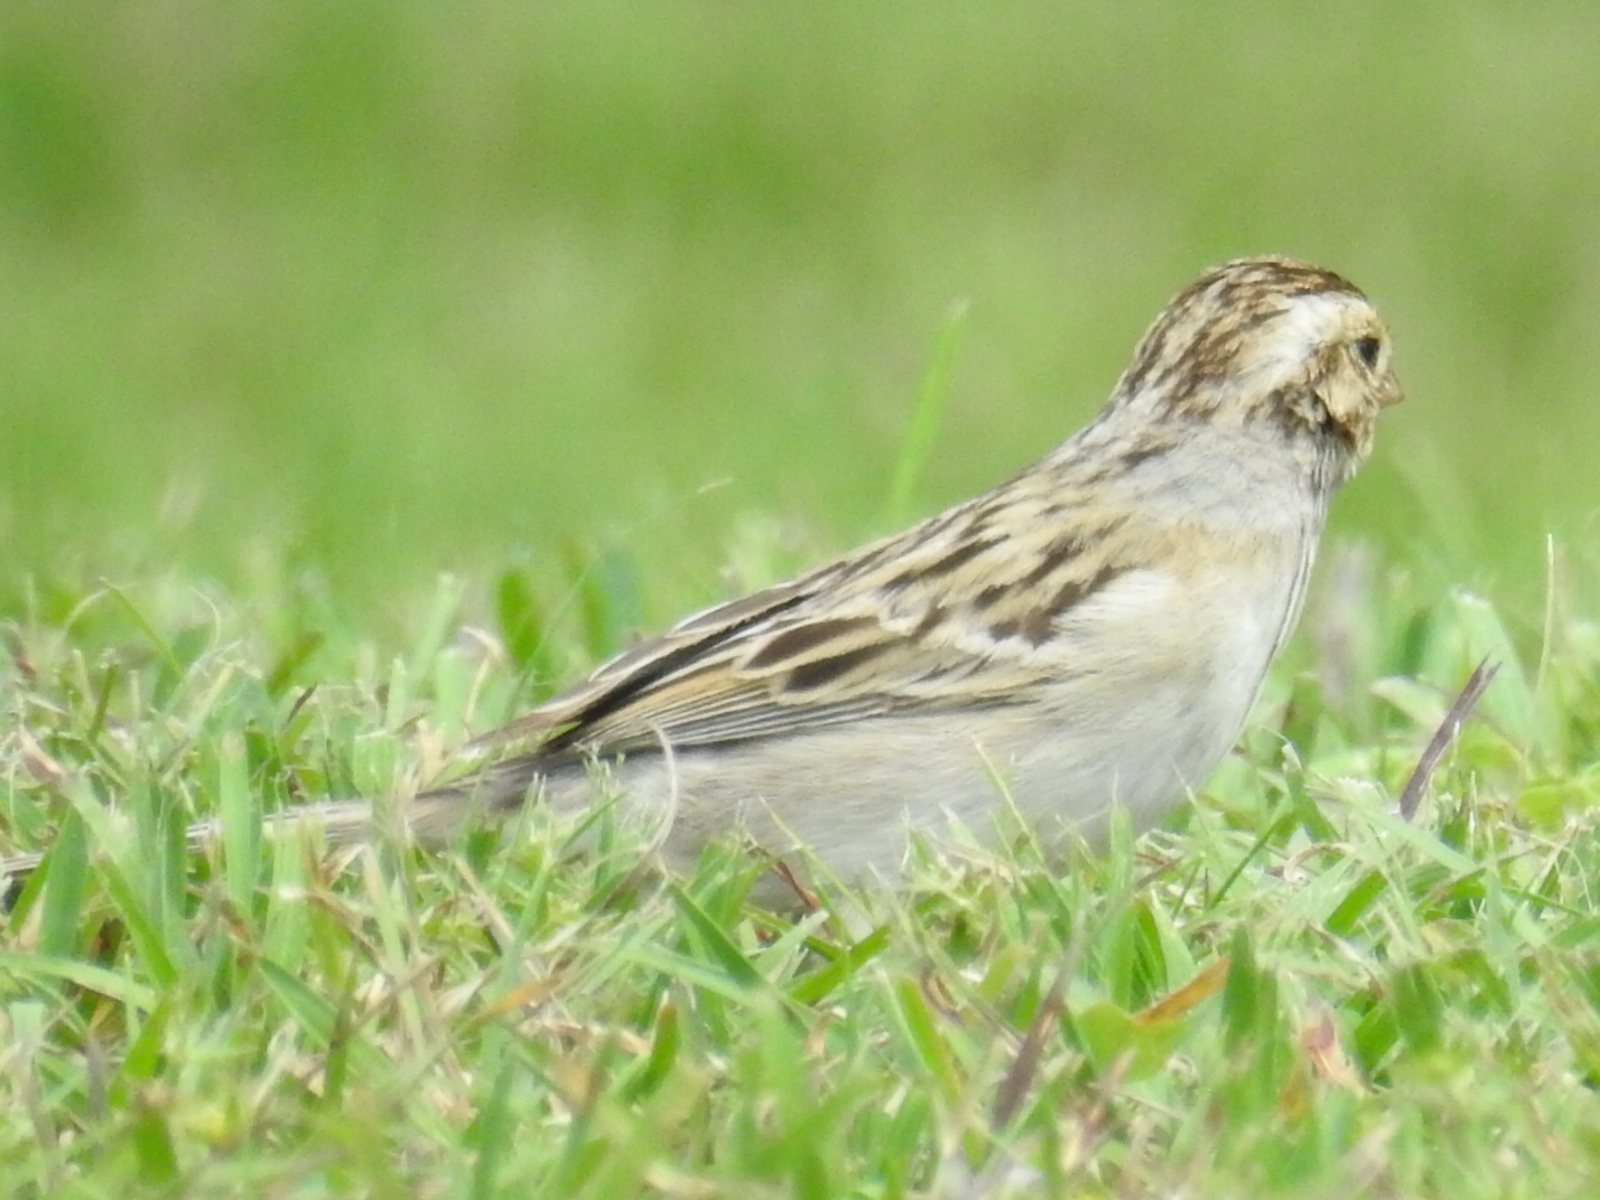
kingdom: Animalia
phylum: Chordata
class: Aves
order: Passeriformes
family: Passerellidae
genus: Spizella
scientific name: Spizella pallida
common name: Clay-colored sparrow
